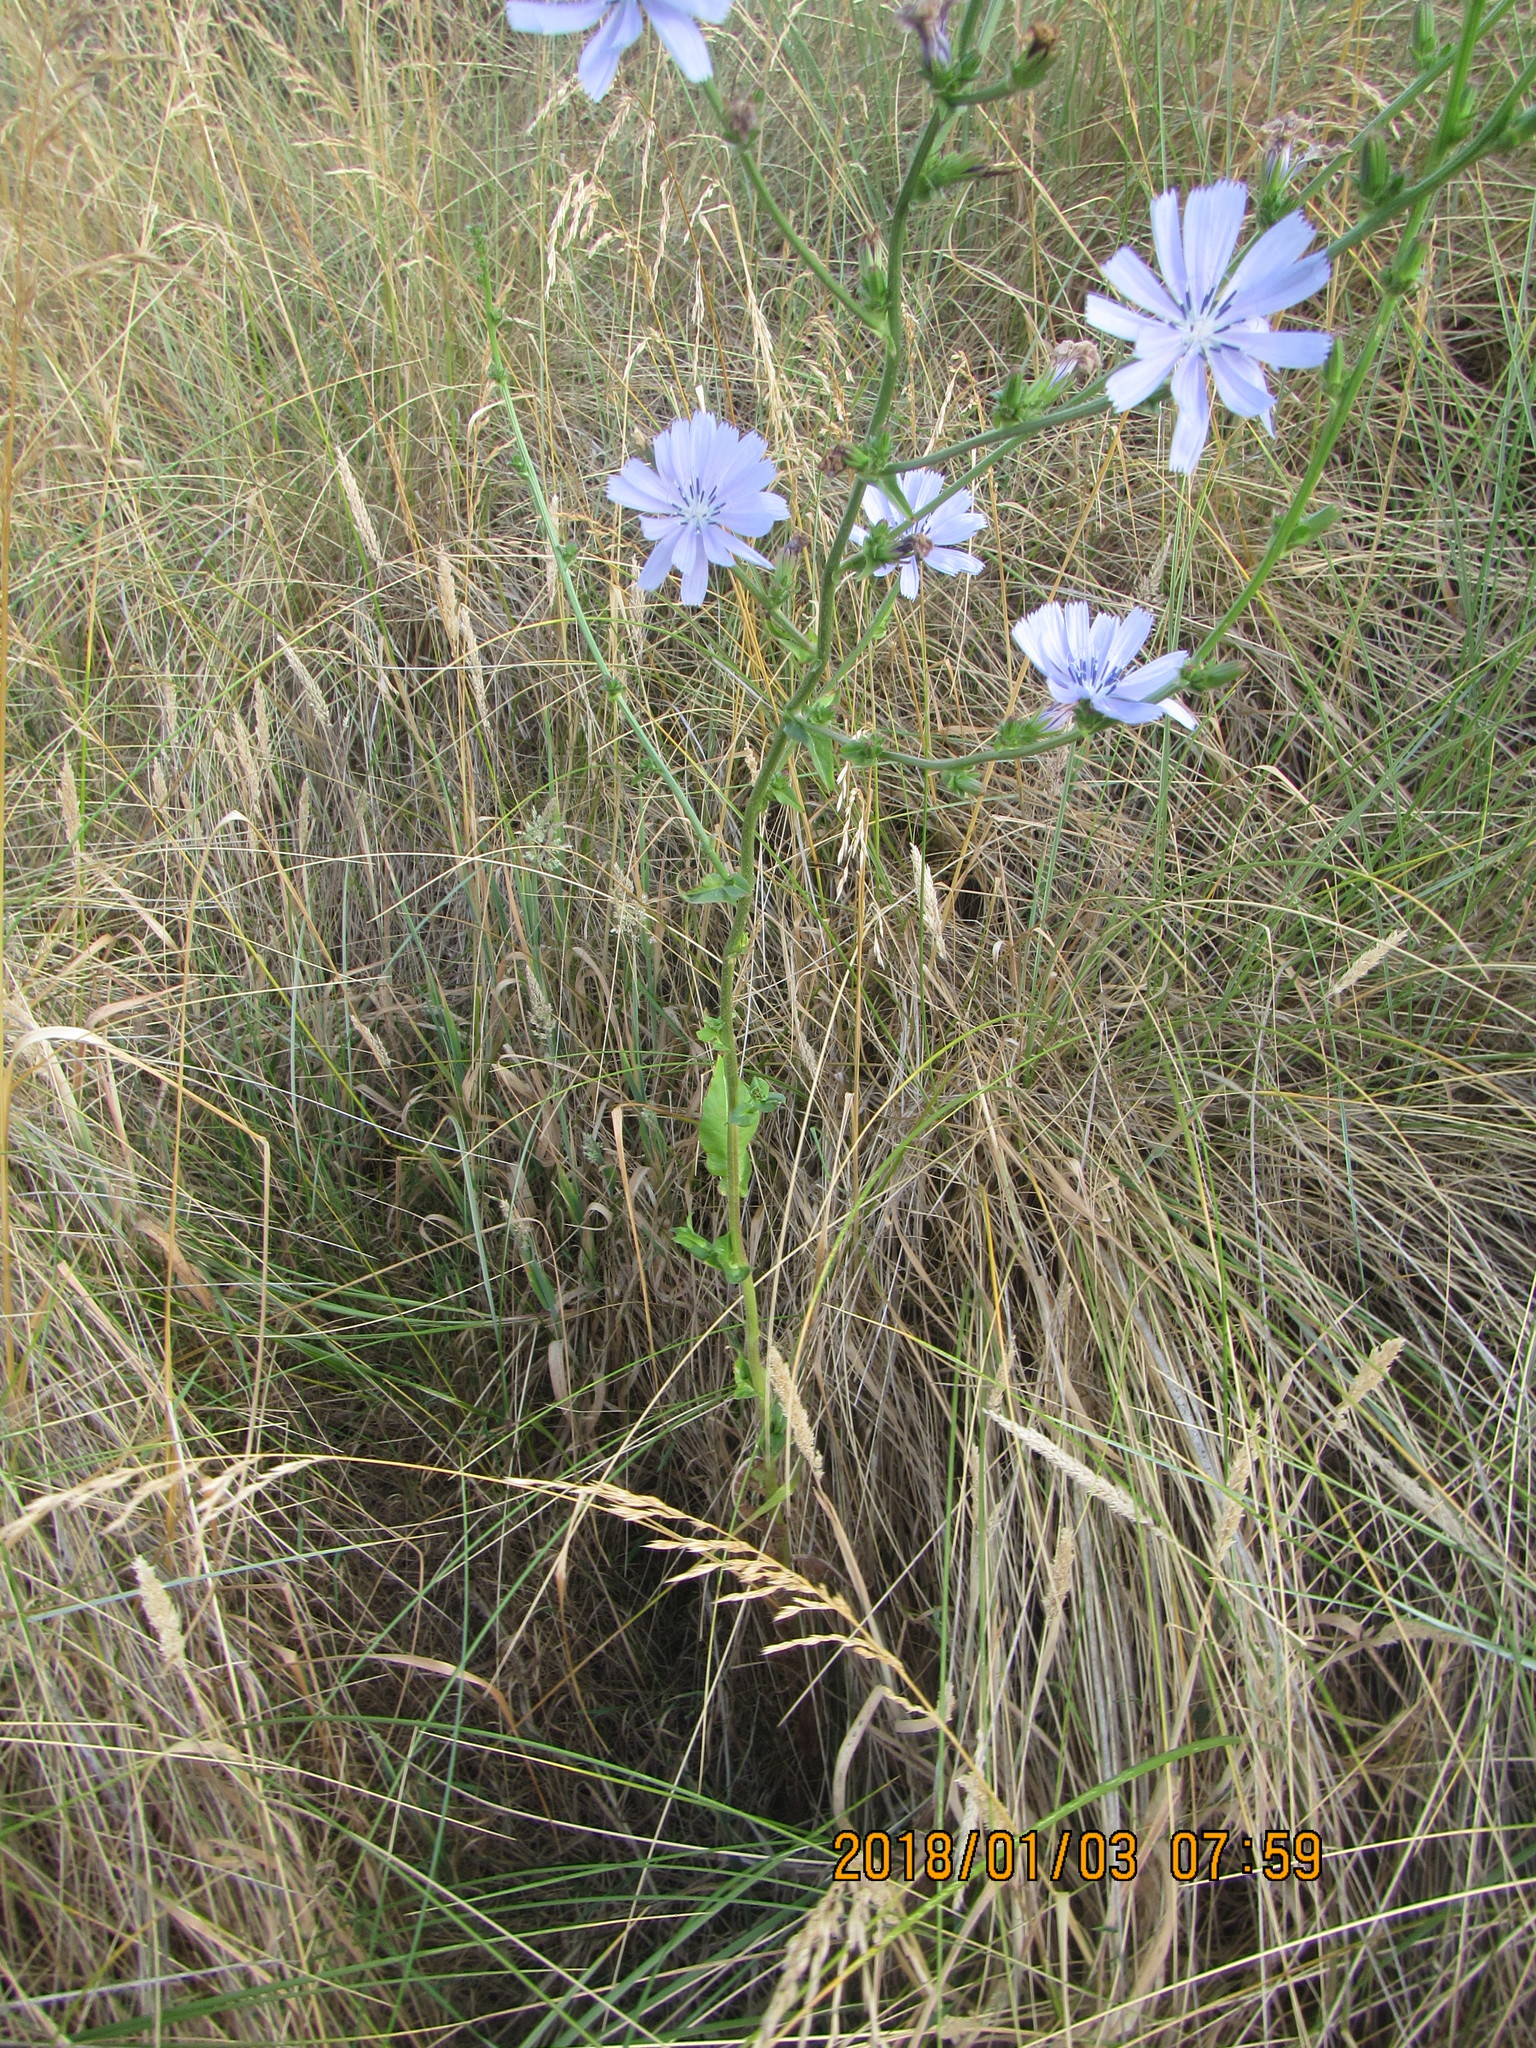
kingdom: Plantae
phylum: Tracheophyta
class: Magnoliopsida
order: Asterales
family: Asteraceae
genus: Cichorium
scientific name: Cichorium intybus
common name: Chicory
